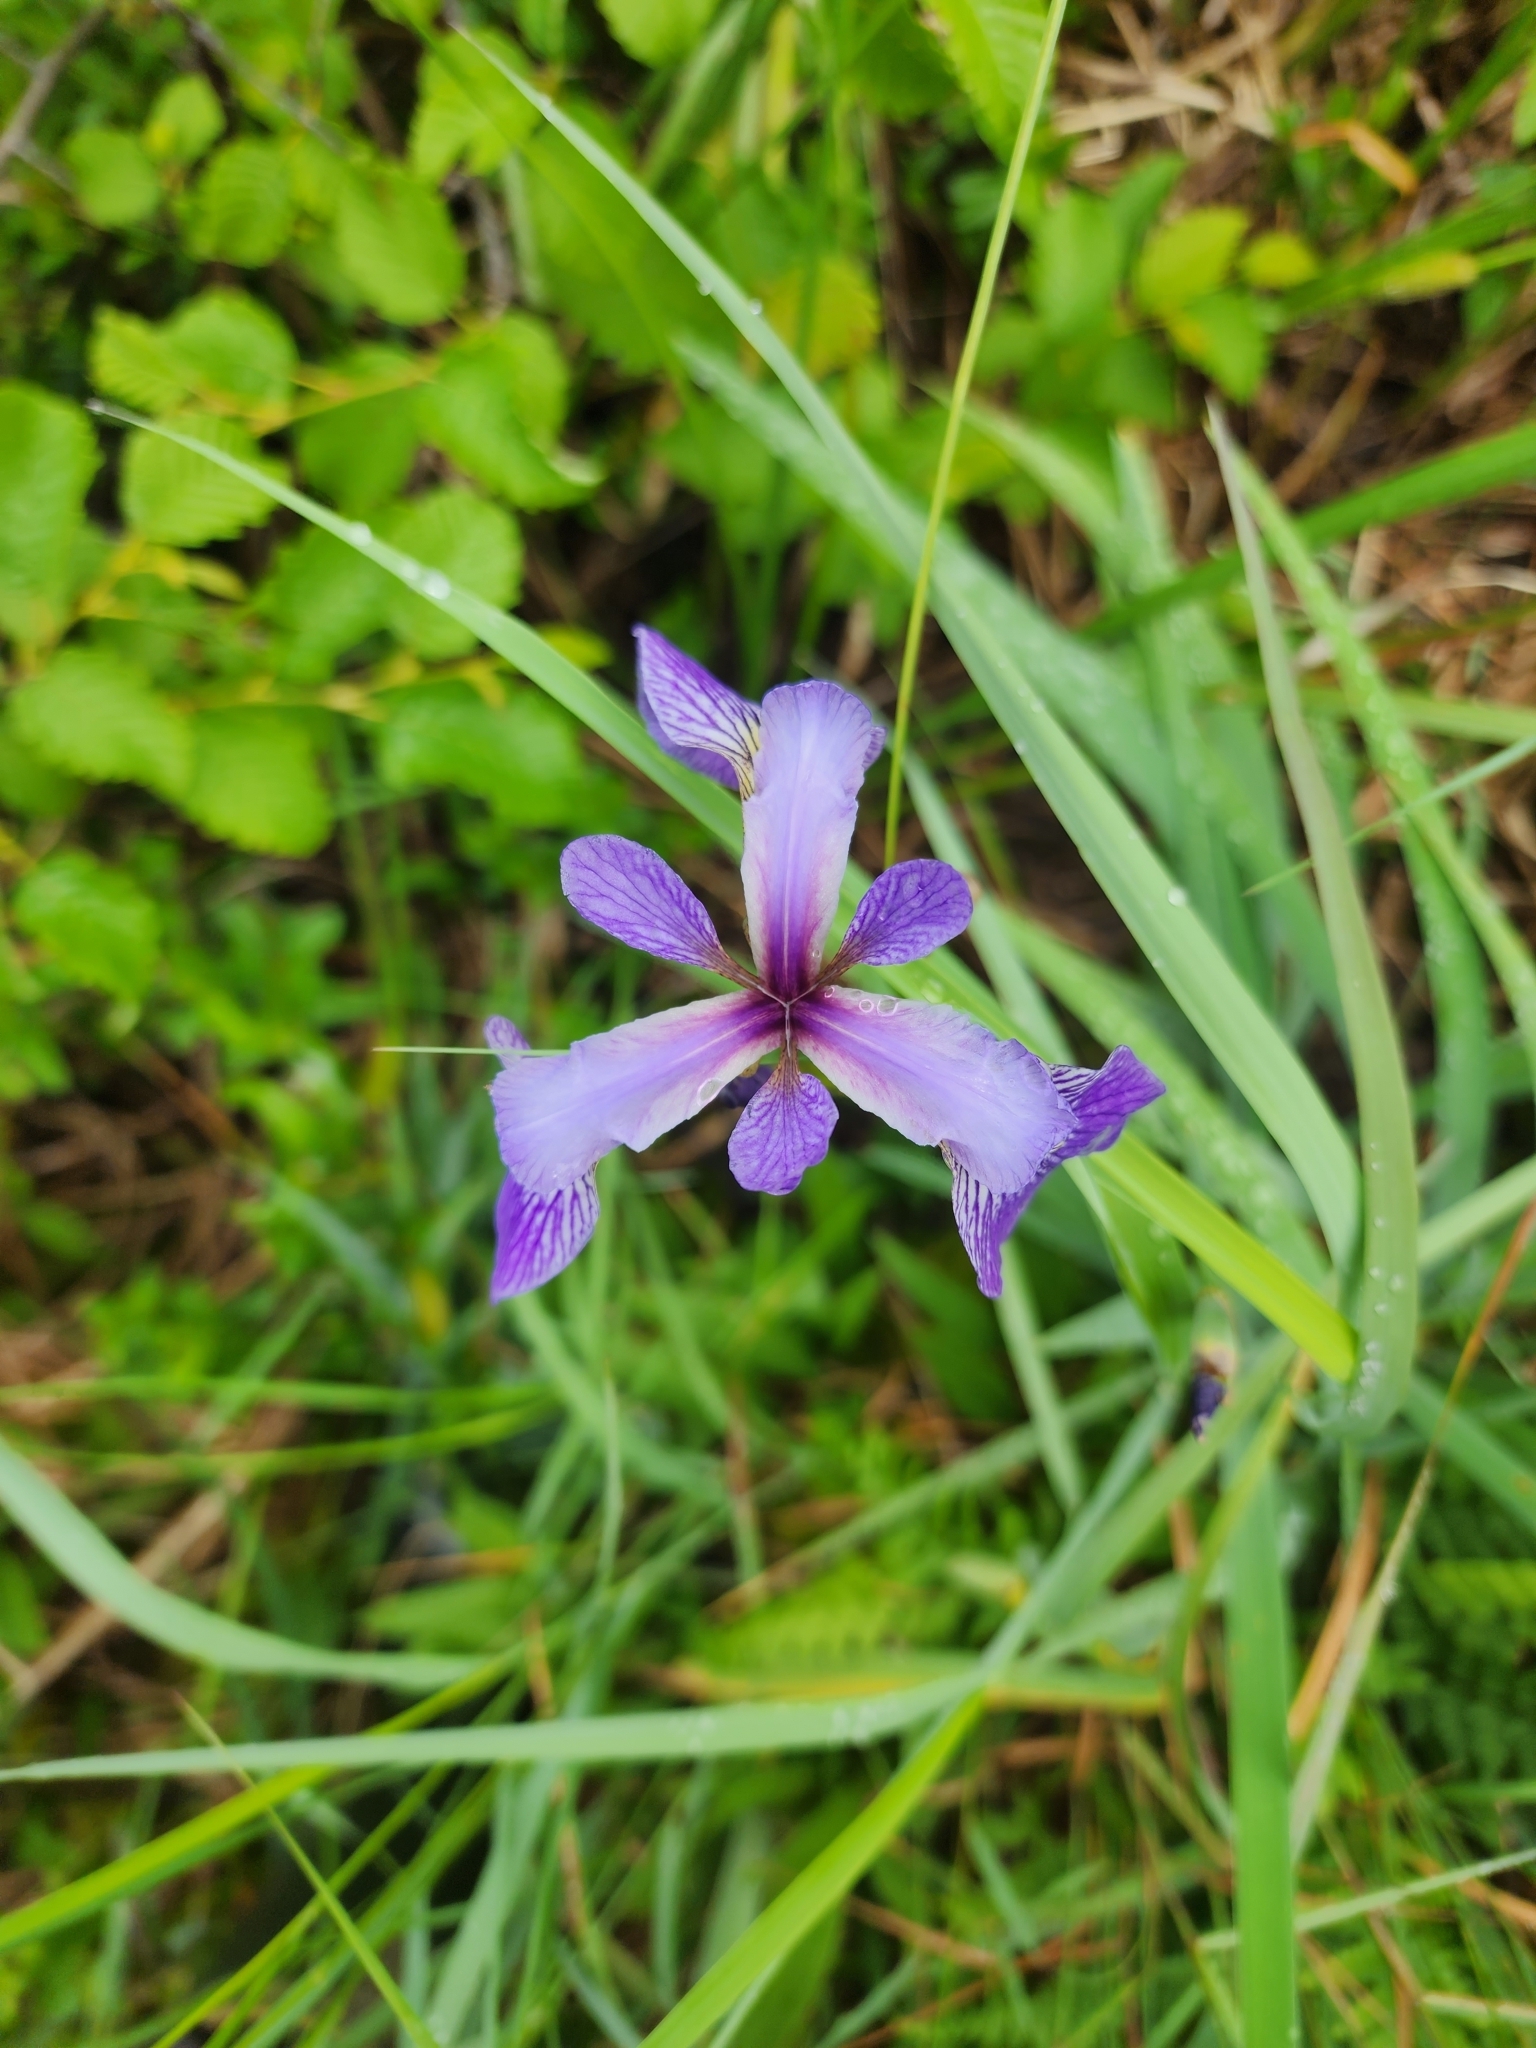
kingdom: Plantae
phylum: Tracheophyta
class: Liliopsida
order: Asparagales
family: Iridaceae
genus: Iris
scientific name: Iris versicolor
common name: Purple iris
